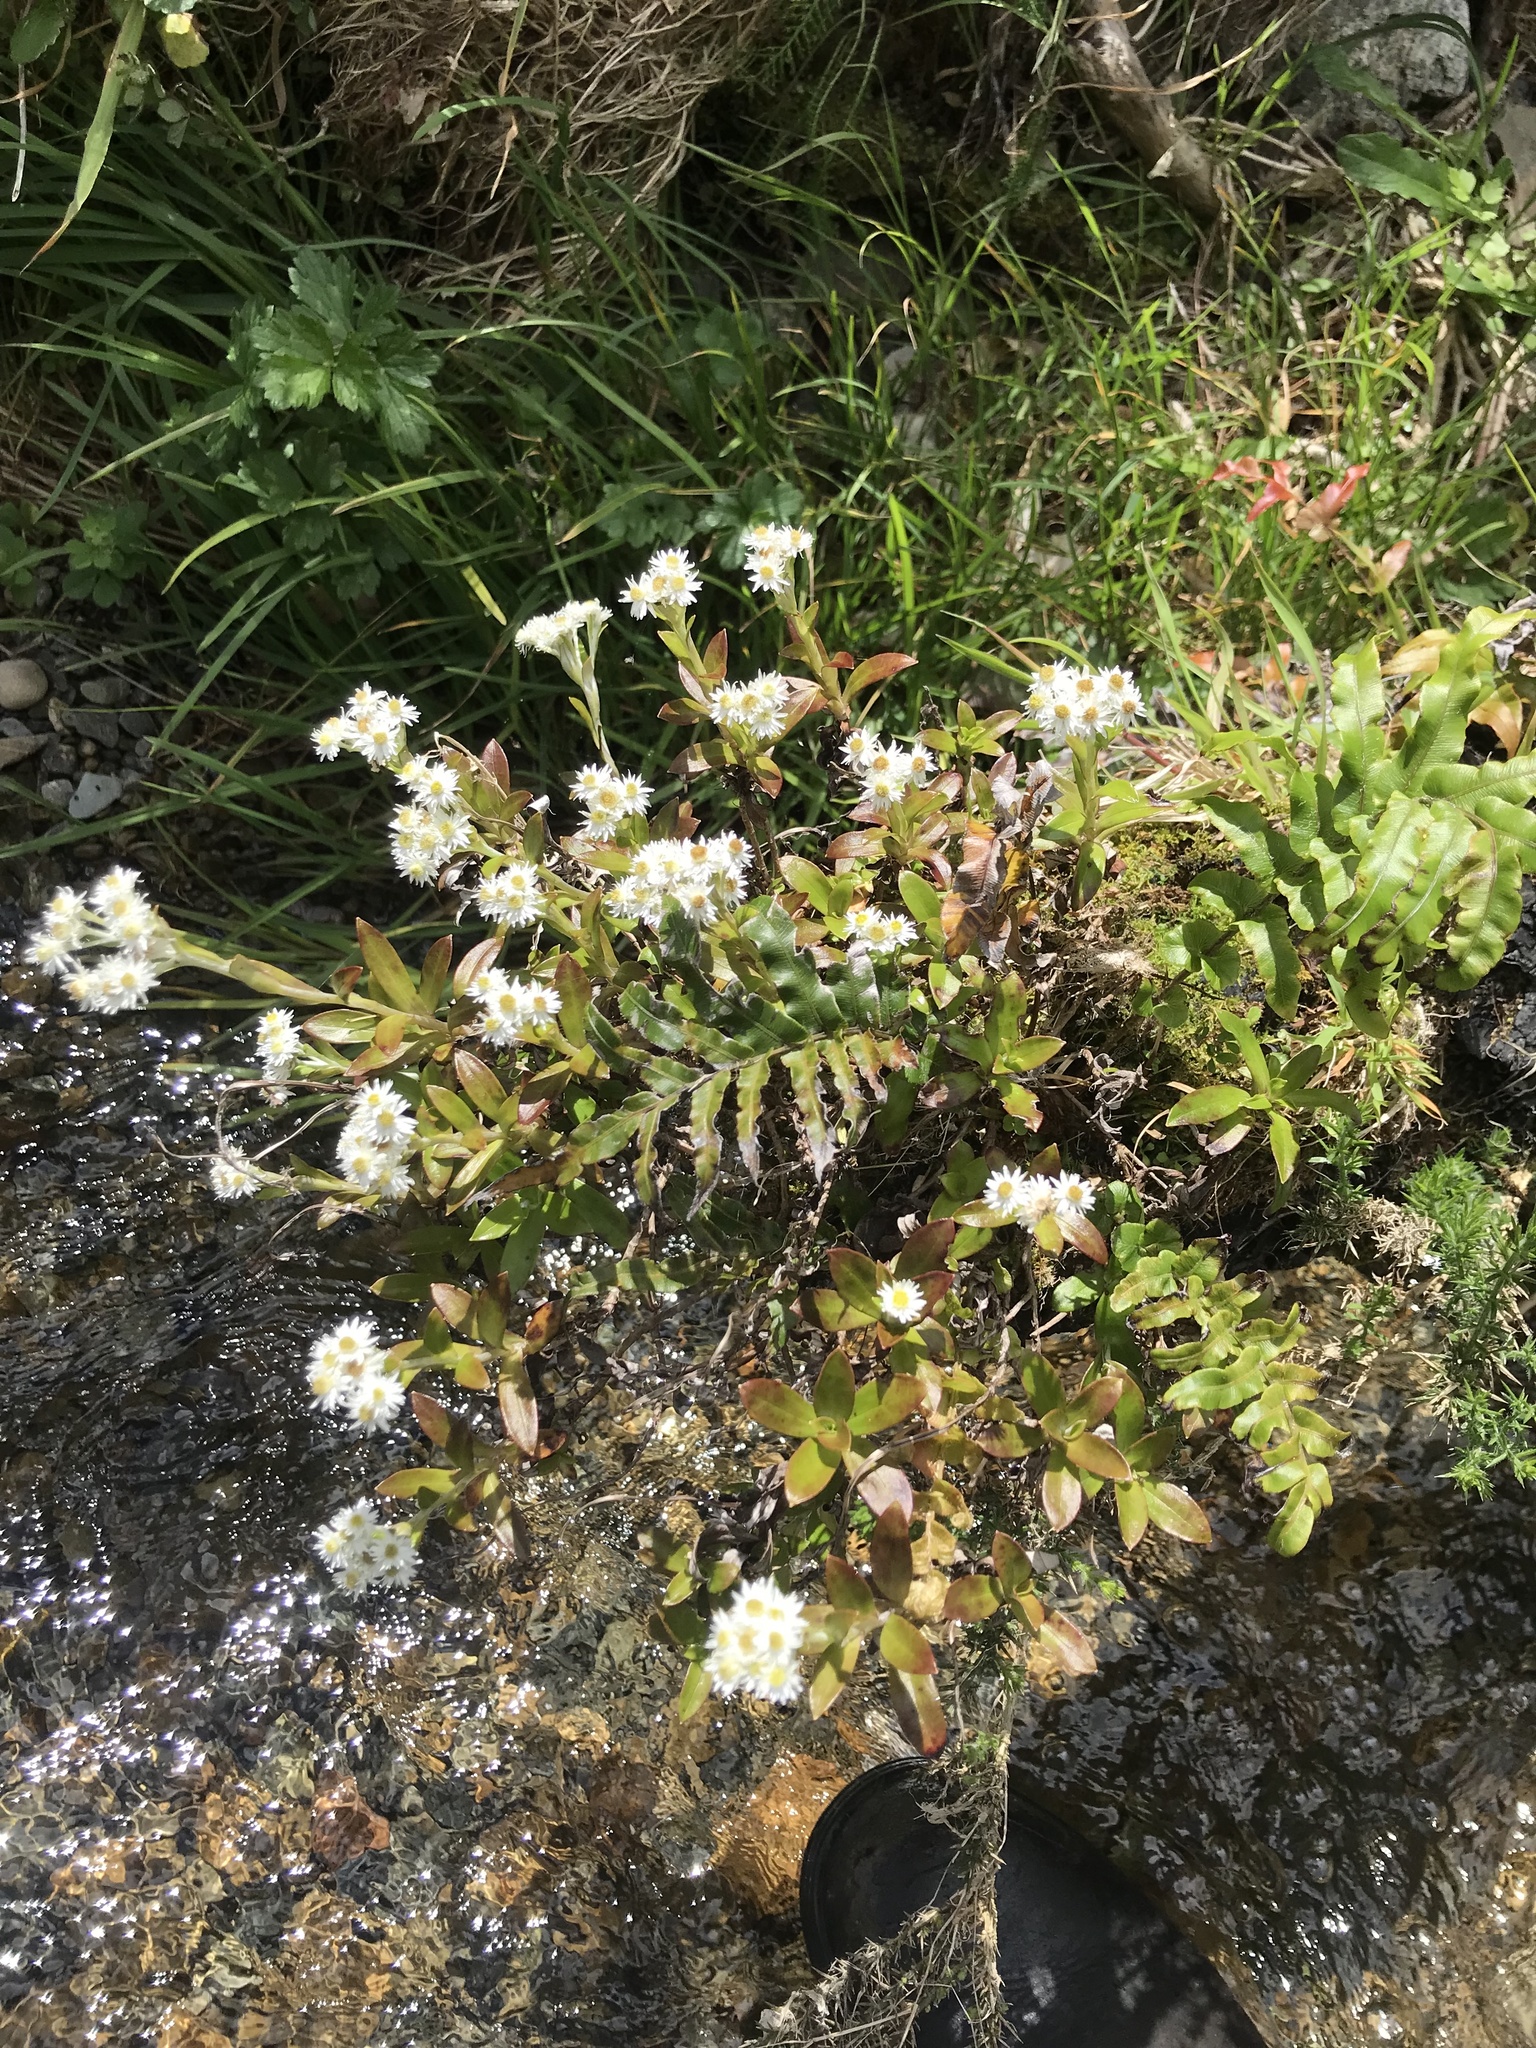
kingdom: Plantae
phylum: Tracheophyta
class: Magnoliopsida
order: Asterales
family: Asteraceae
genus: Anaphalioides
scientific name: Anaphalioides trinervis
